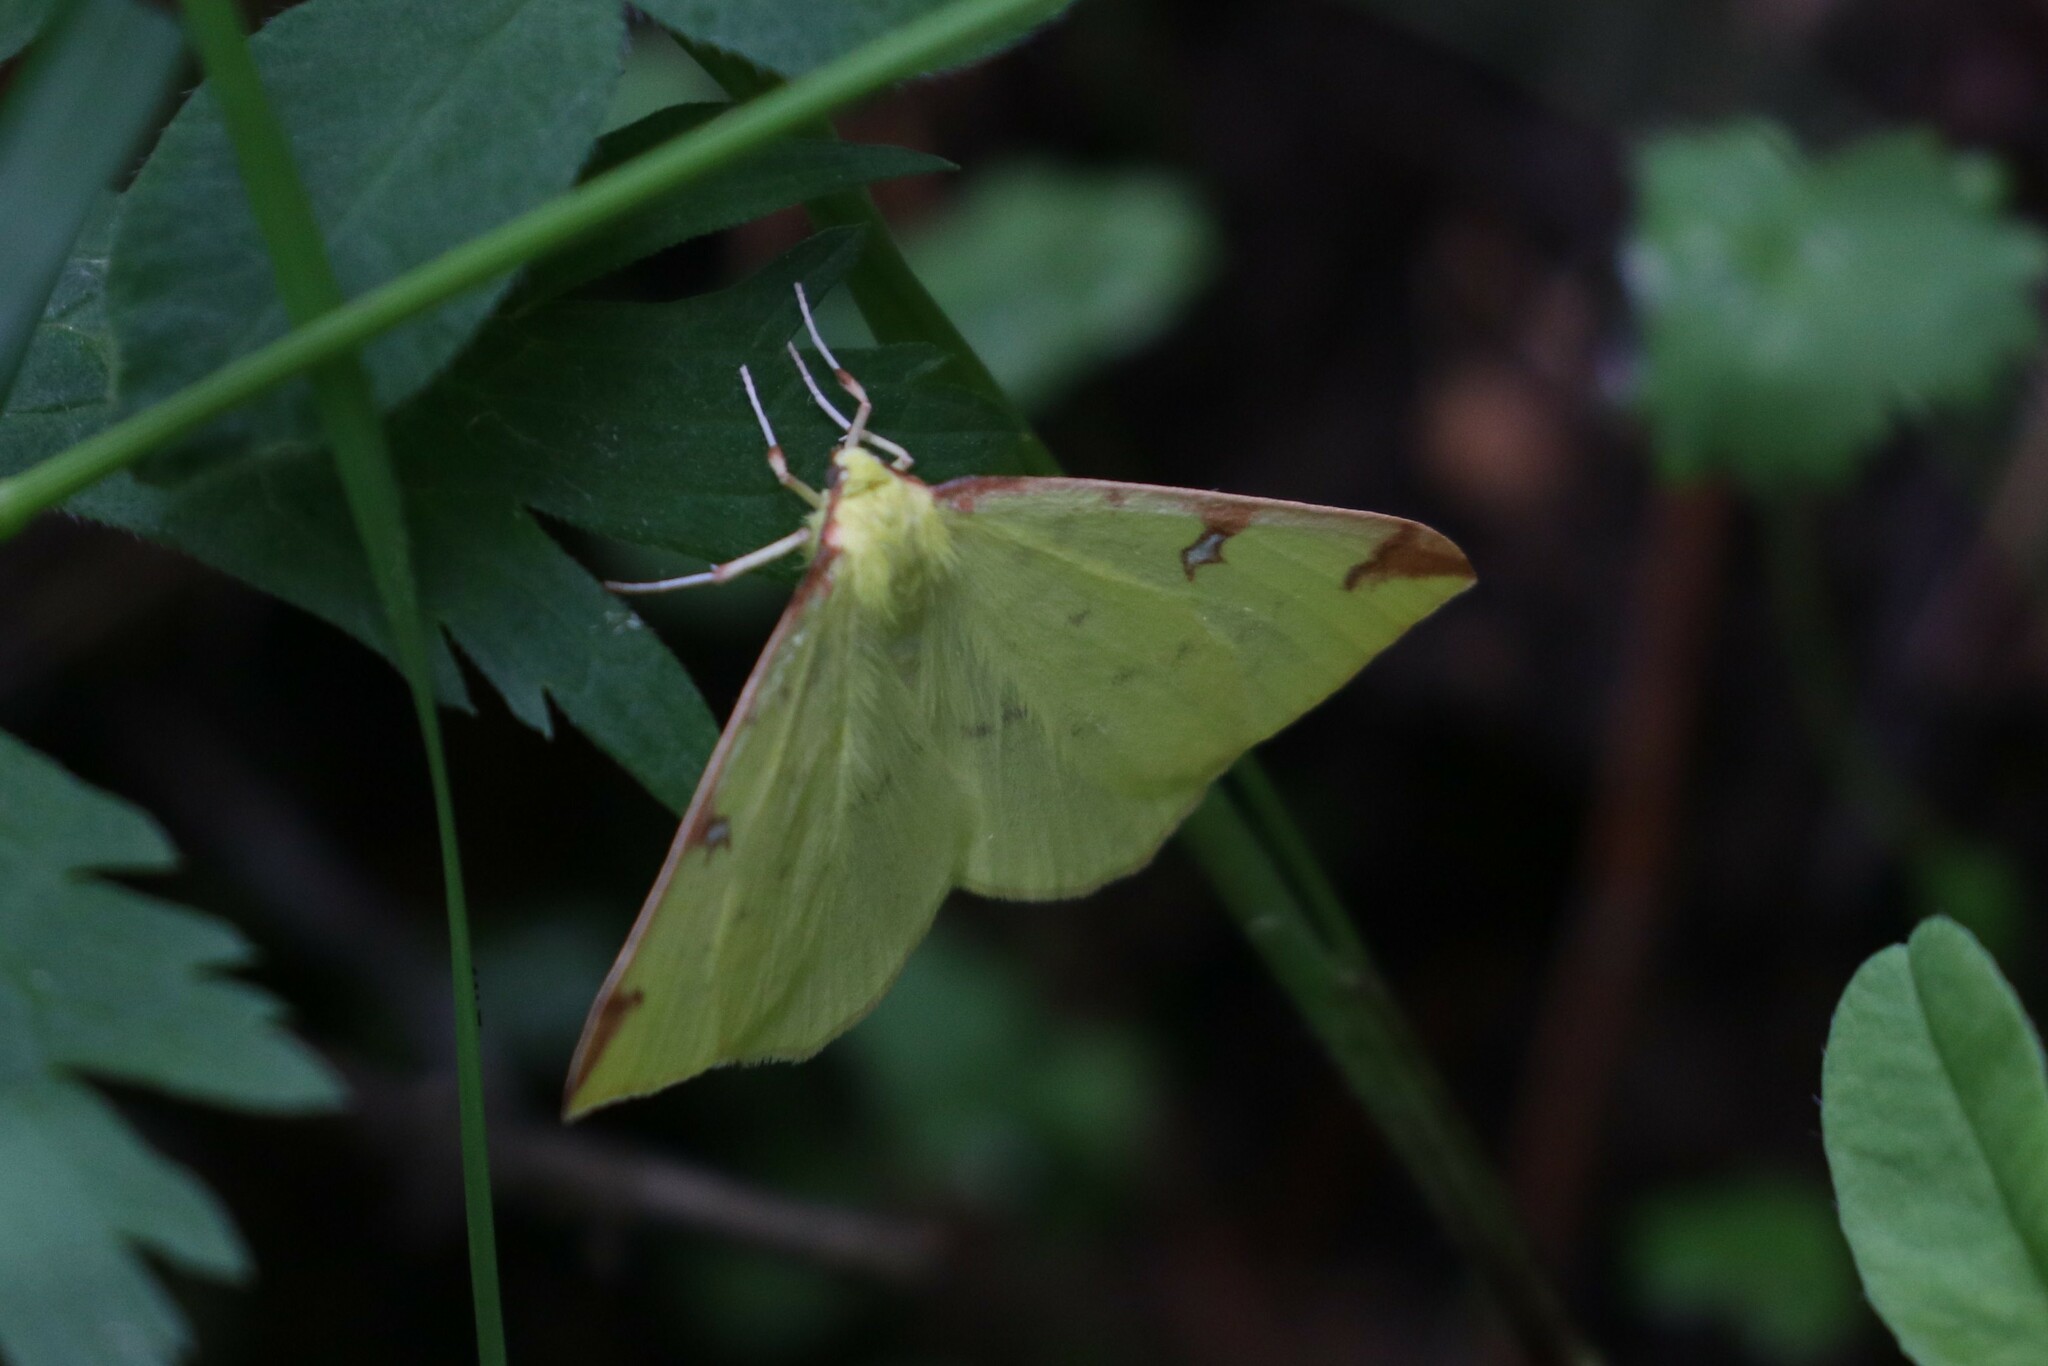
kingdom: Animalia
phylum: Arthropoda
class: Insecta
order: Lepidoptera
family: Geometridae
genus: Opisthograptis
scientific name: Opisthograptis luteolata
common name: Brimstone moth
